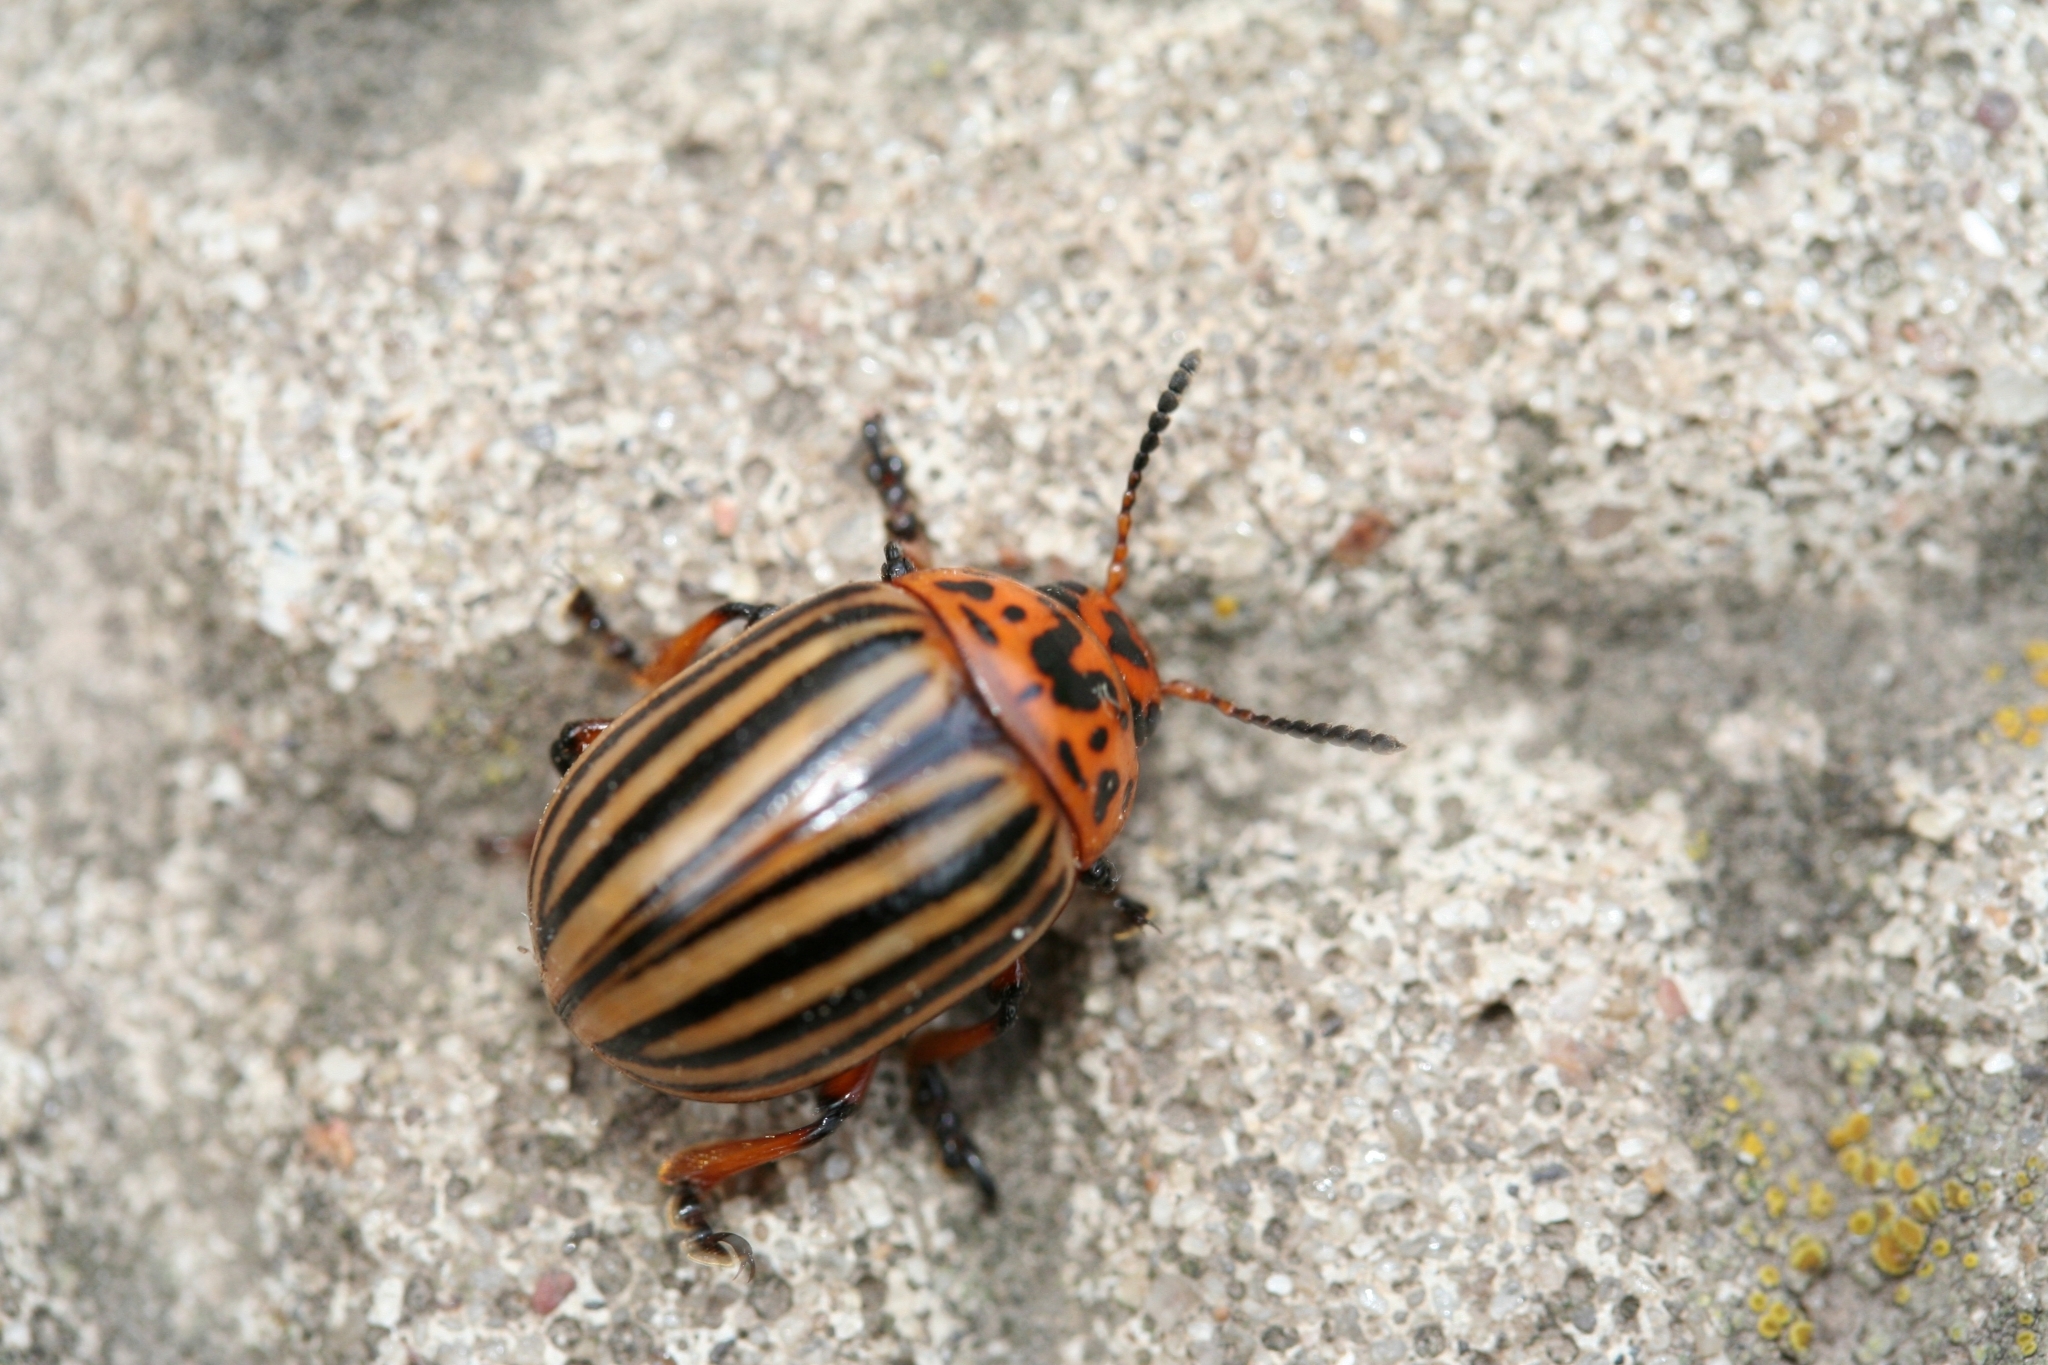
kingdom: Animalia
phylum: Arthropoda
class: Insecta
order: Coleoptera
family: Chrysomelidae
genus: Leptinotarsa
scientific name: Leptinotarsa decemlineata
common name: Colorado potato beetle
